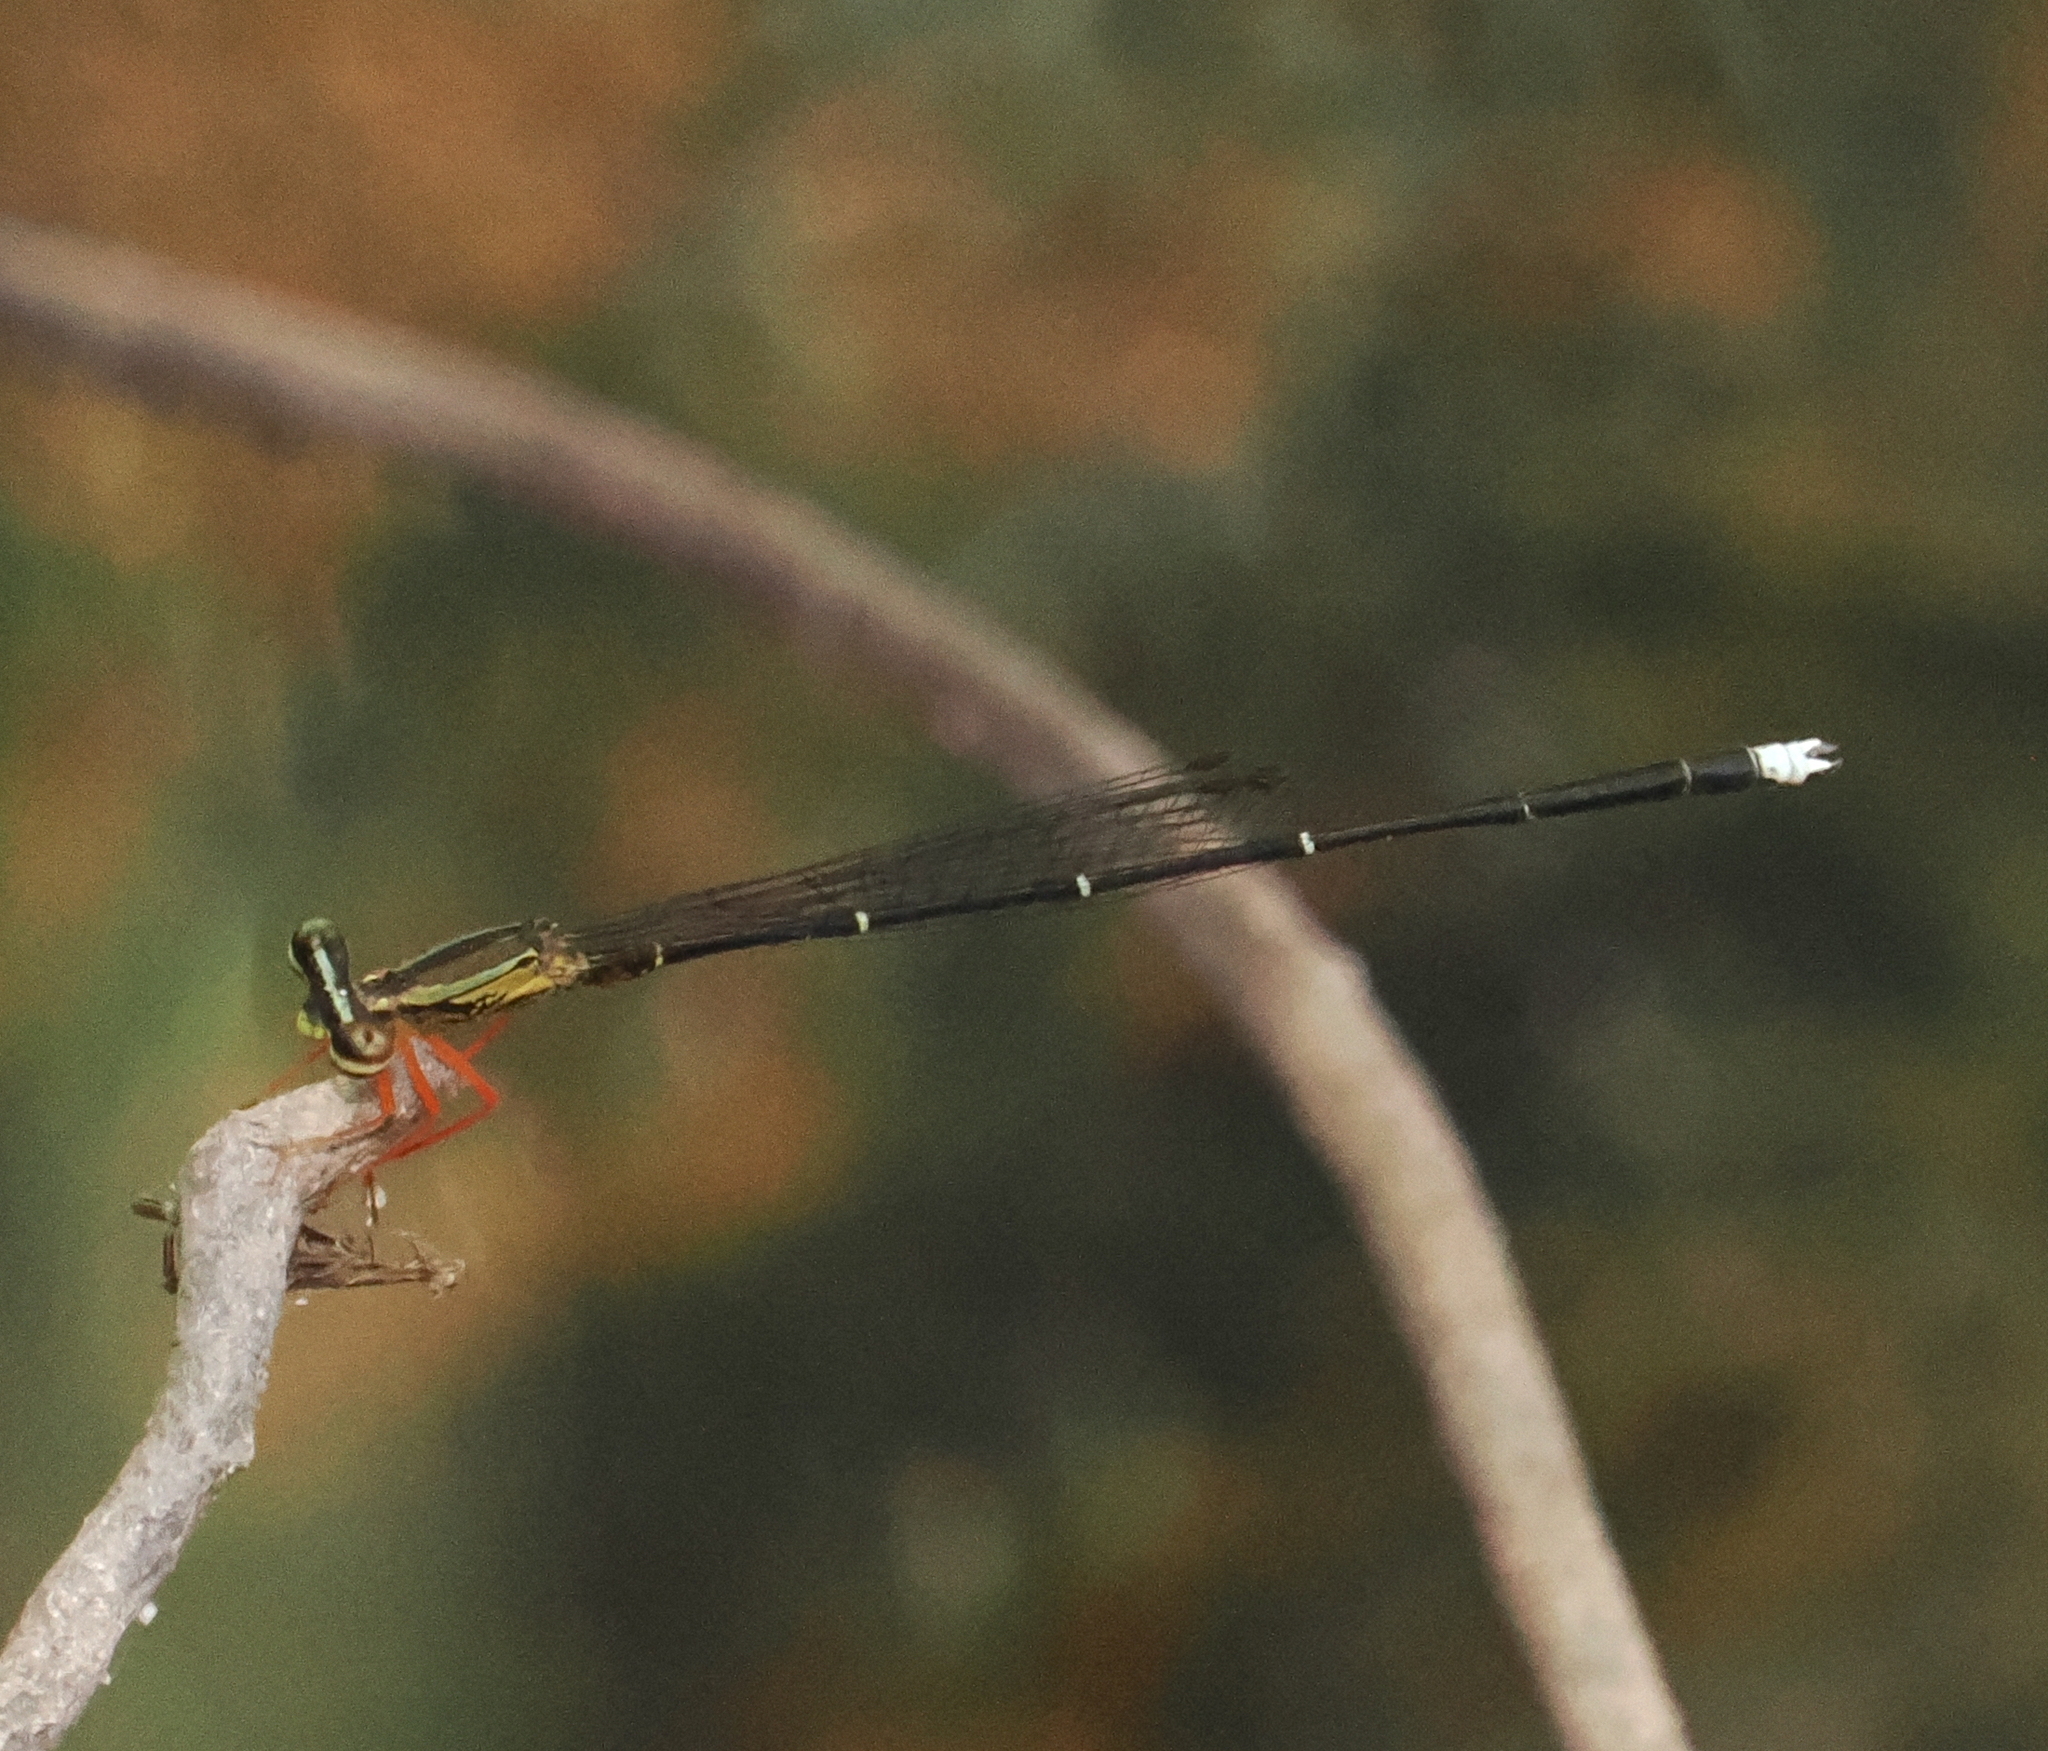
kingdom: Animalia
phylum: Arthropoda
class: Insecta
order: Odonata
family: Platycnemididae
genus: Copera
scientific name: Copera vittata
